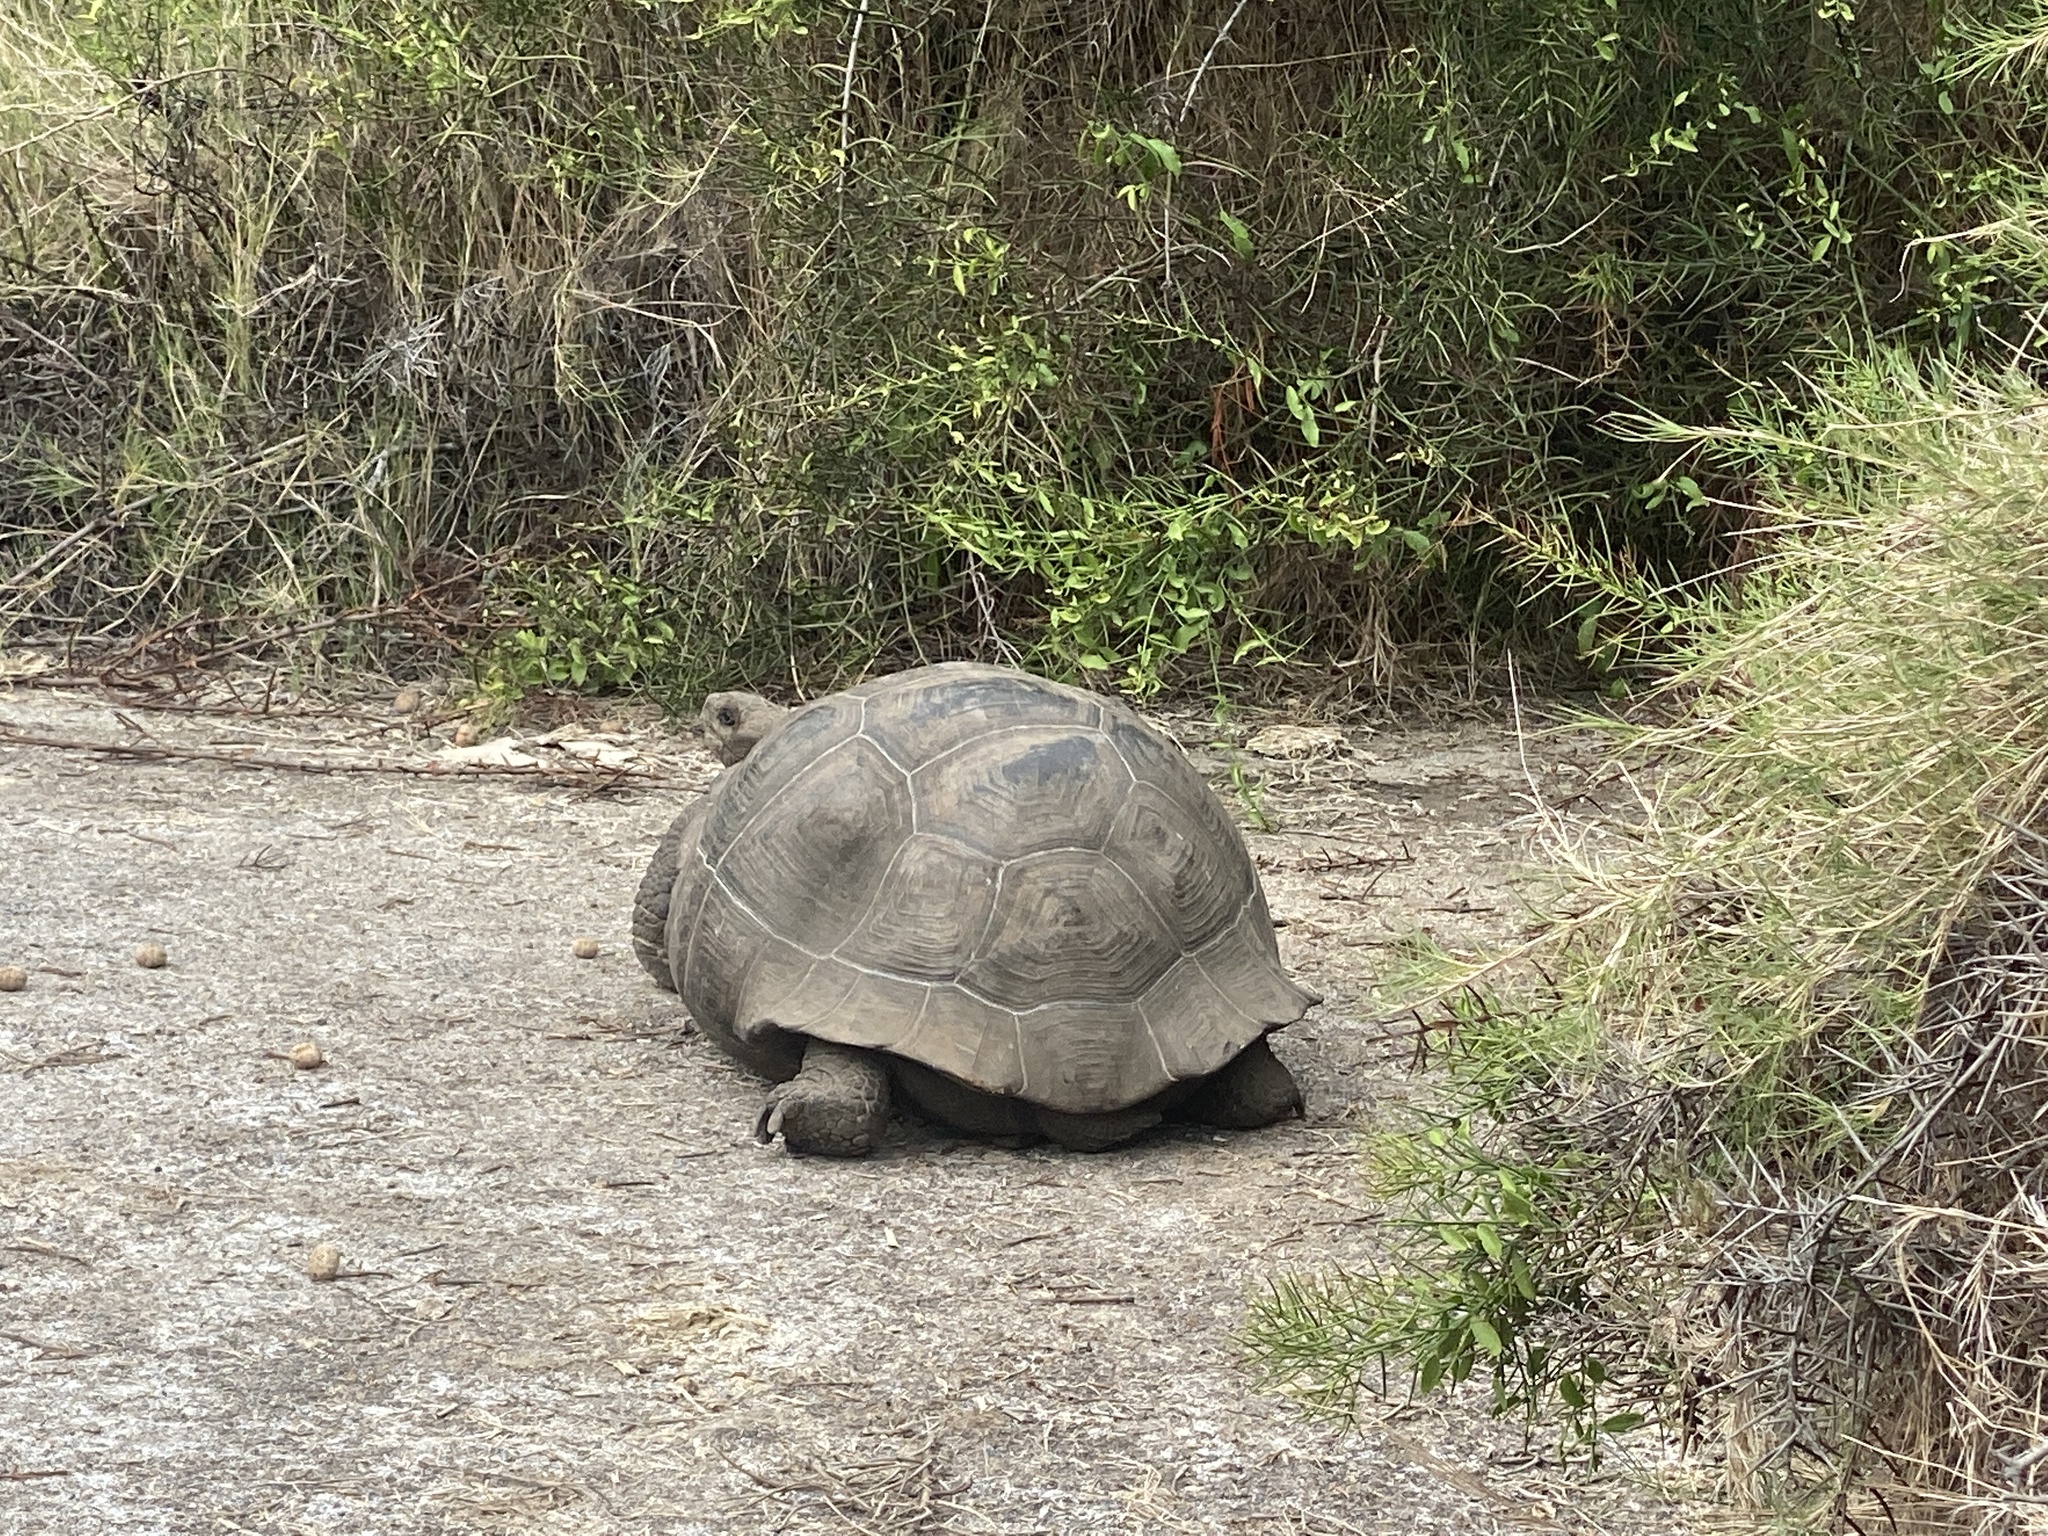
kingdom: Animalia
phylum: Chordata
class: Testudines
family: Testudinidae
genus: Chelonoidis
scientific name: Chelonoidis vandenburghi
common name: Alcedo volcano giant tortoise
